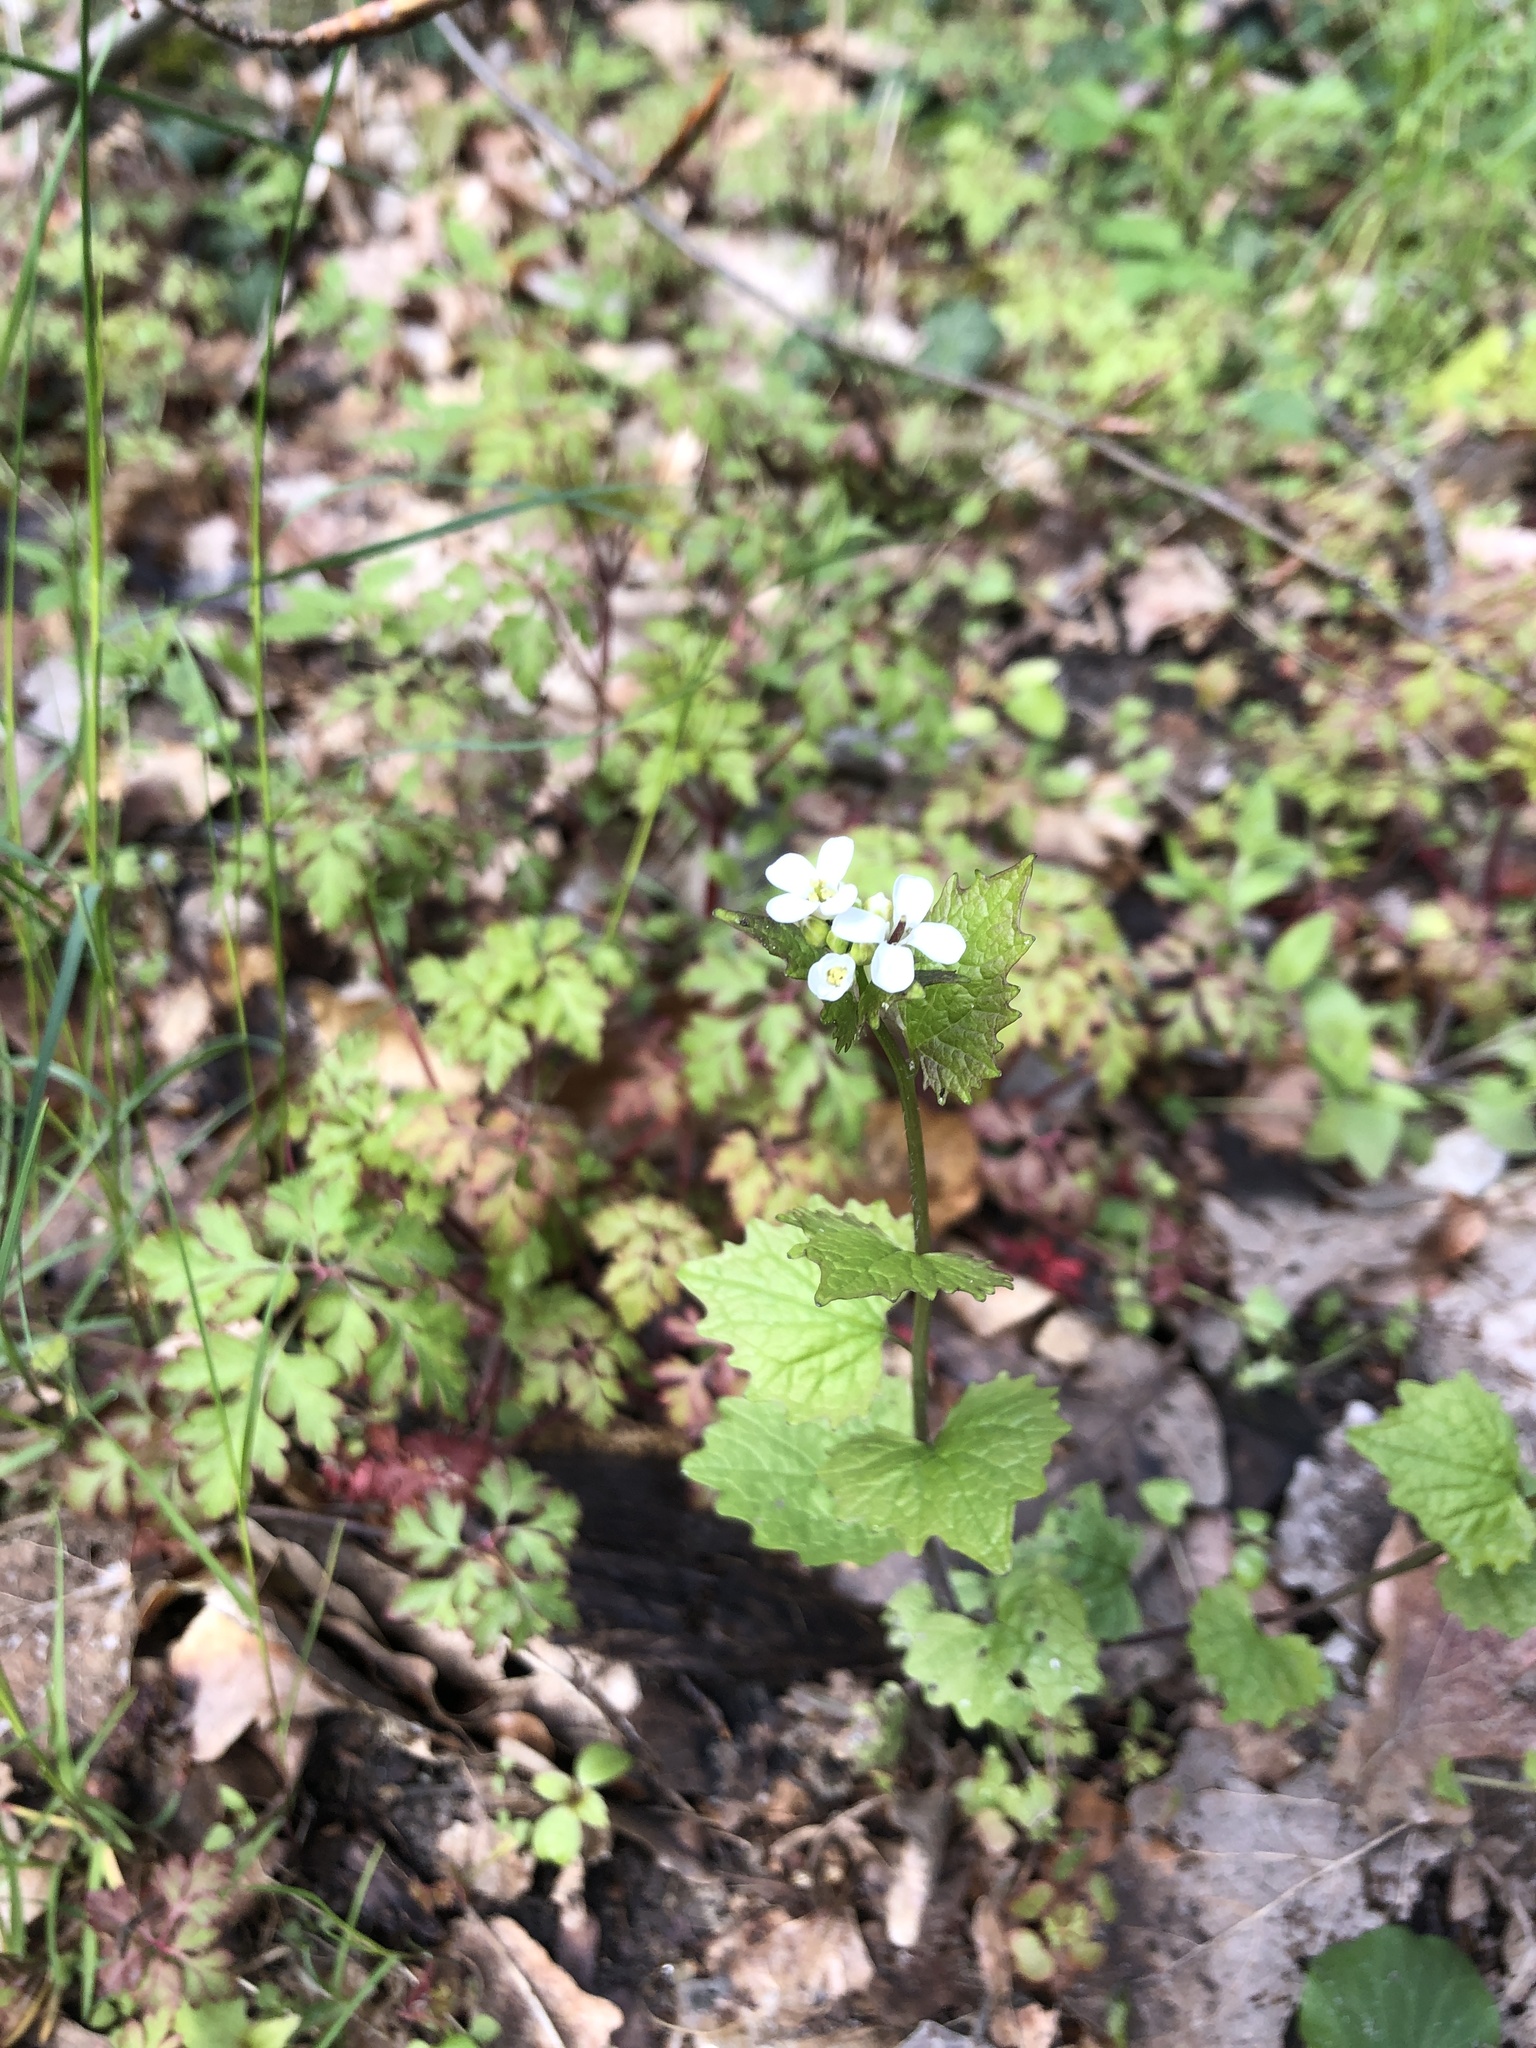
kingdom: Plantae
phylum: Tracheophyta
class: Magnoliopsida
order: Brassicales
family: Brassicaceae
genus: Alliaria
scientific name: Alliaria petiolata
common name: Garlic mustard
